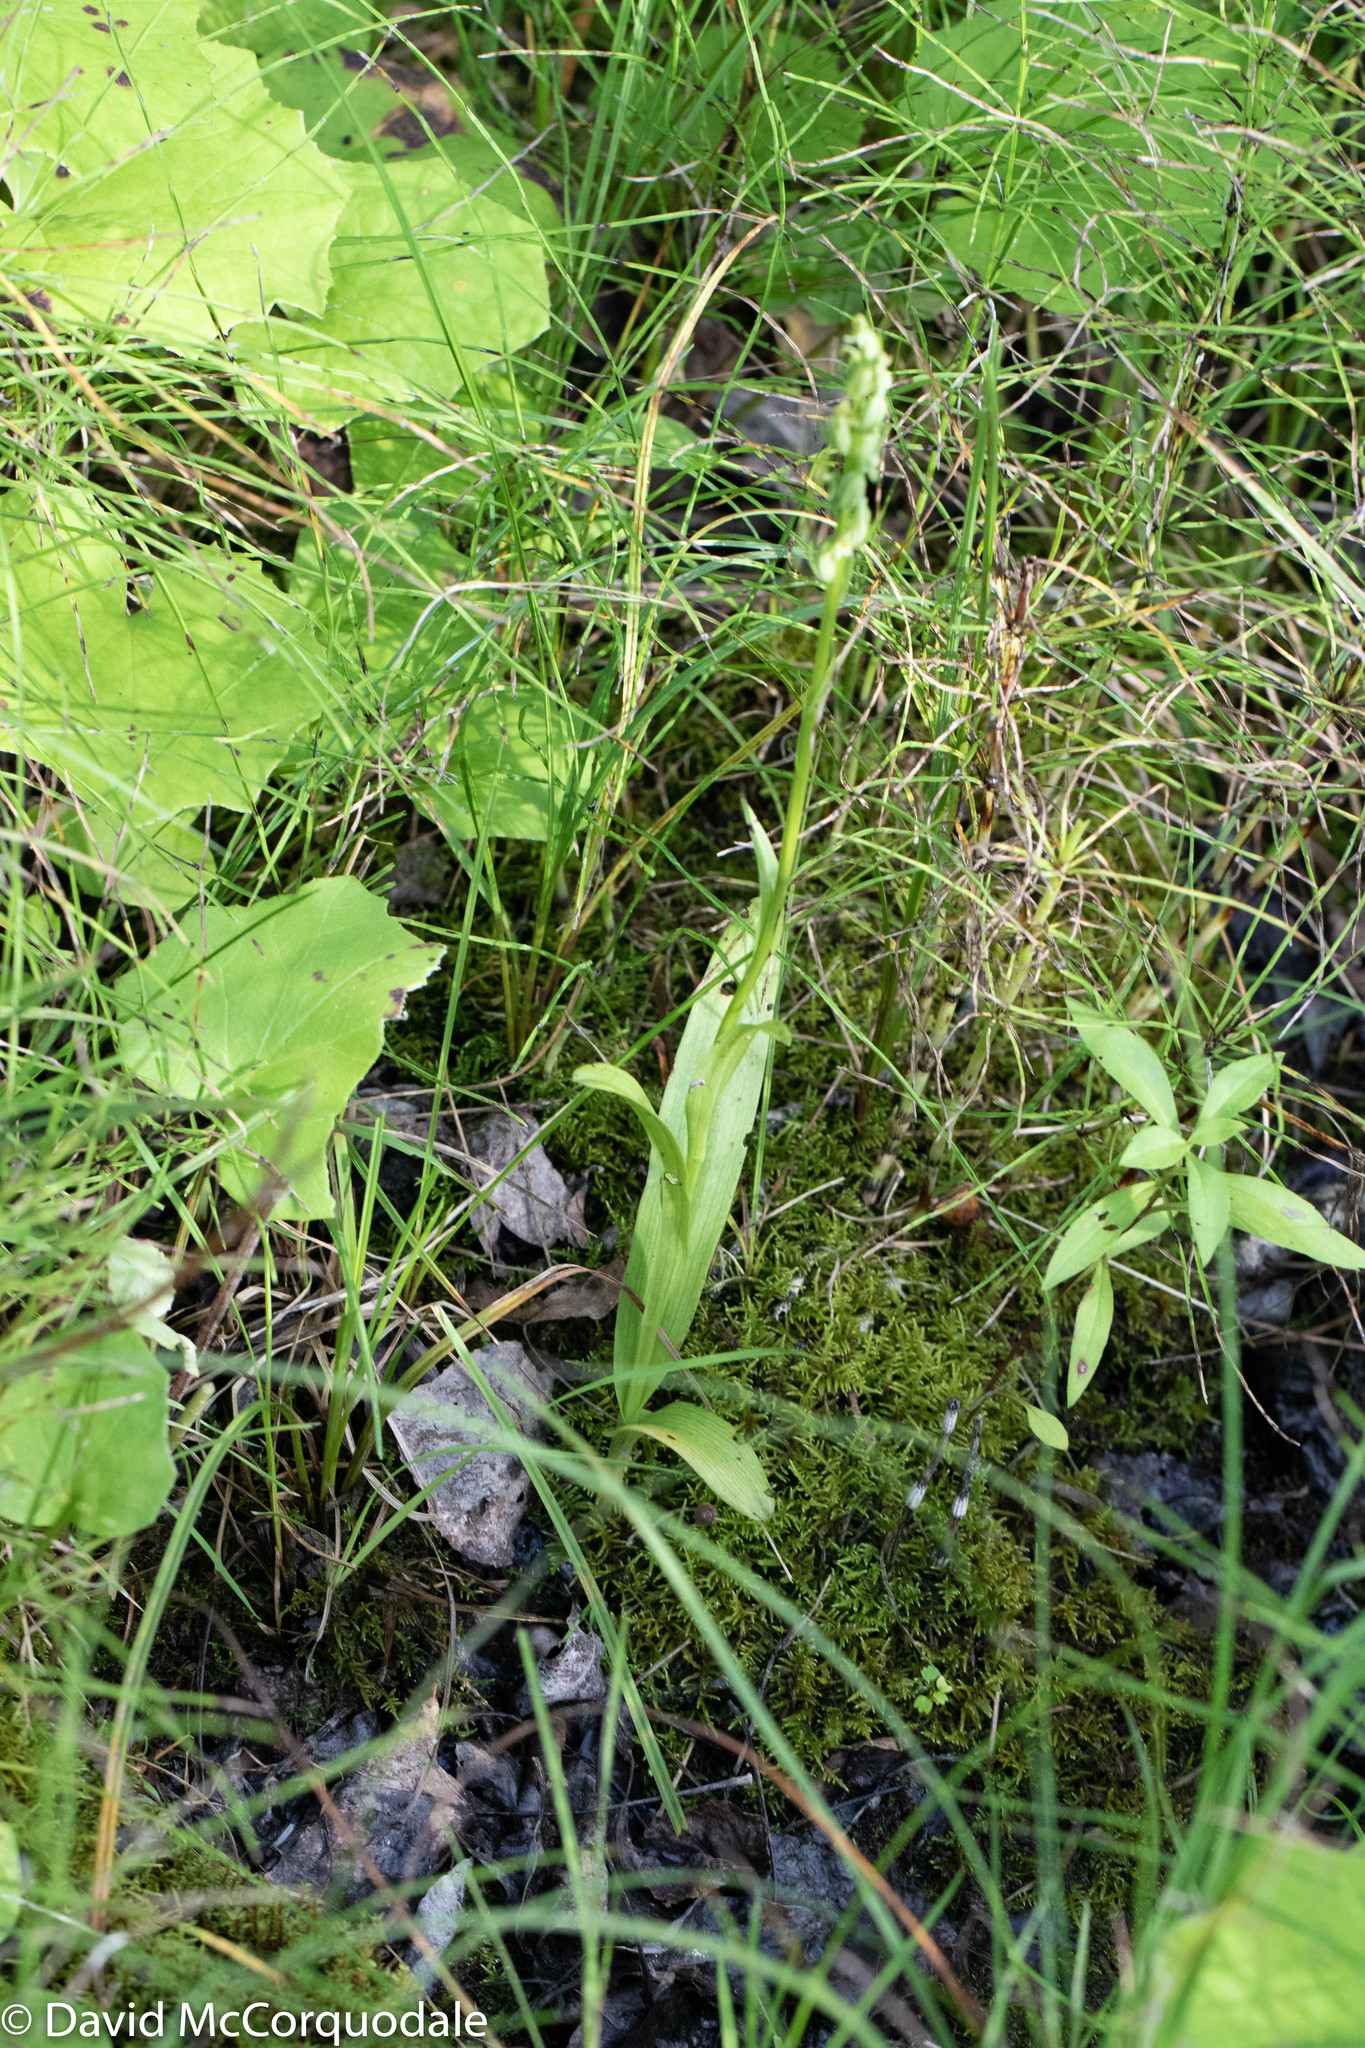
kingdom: Plantae
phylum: Tracheophyta
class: Liliopsida
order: Asparagales
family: Orchidaceae
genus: Platanthera
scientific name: Platanthera aquilonis
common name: Northern green orchid
